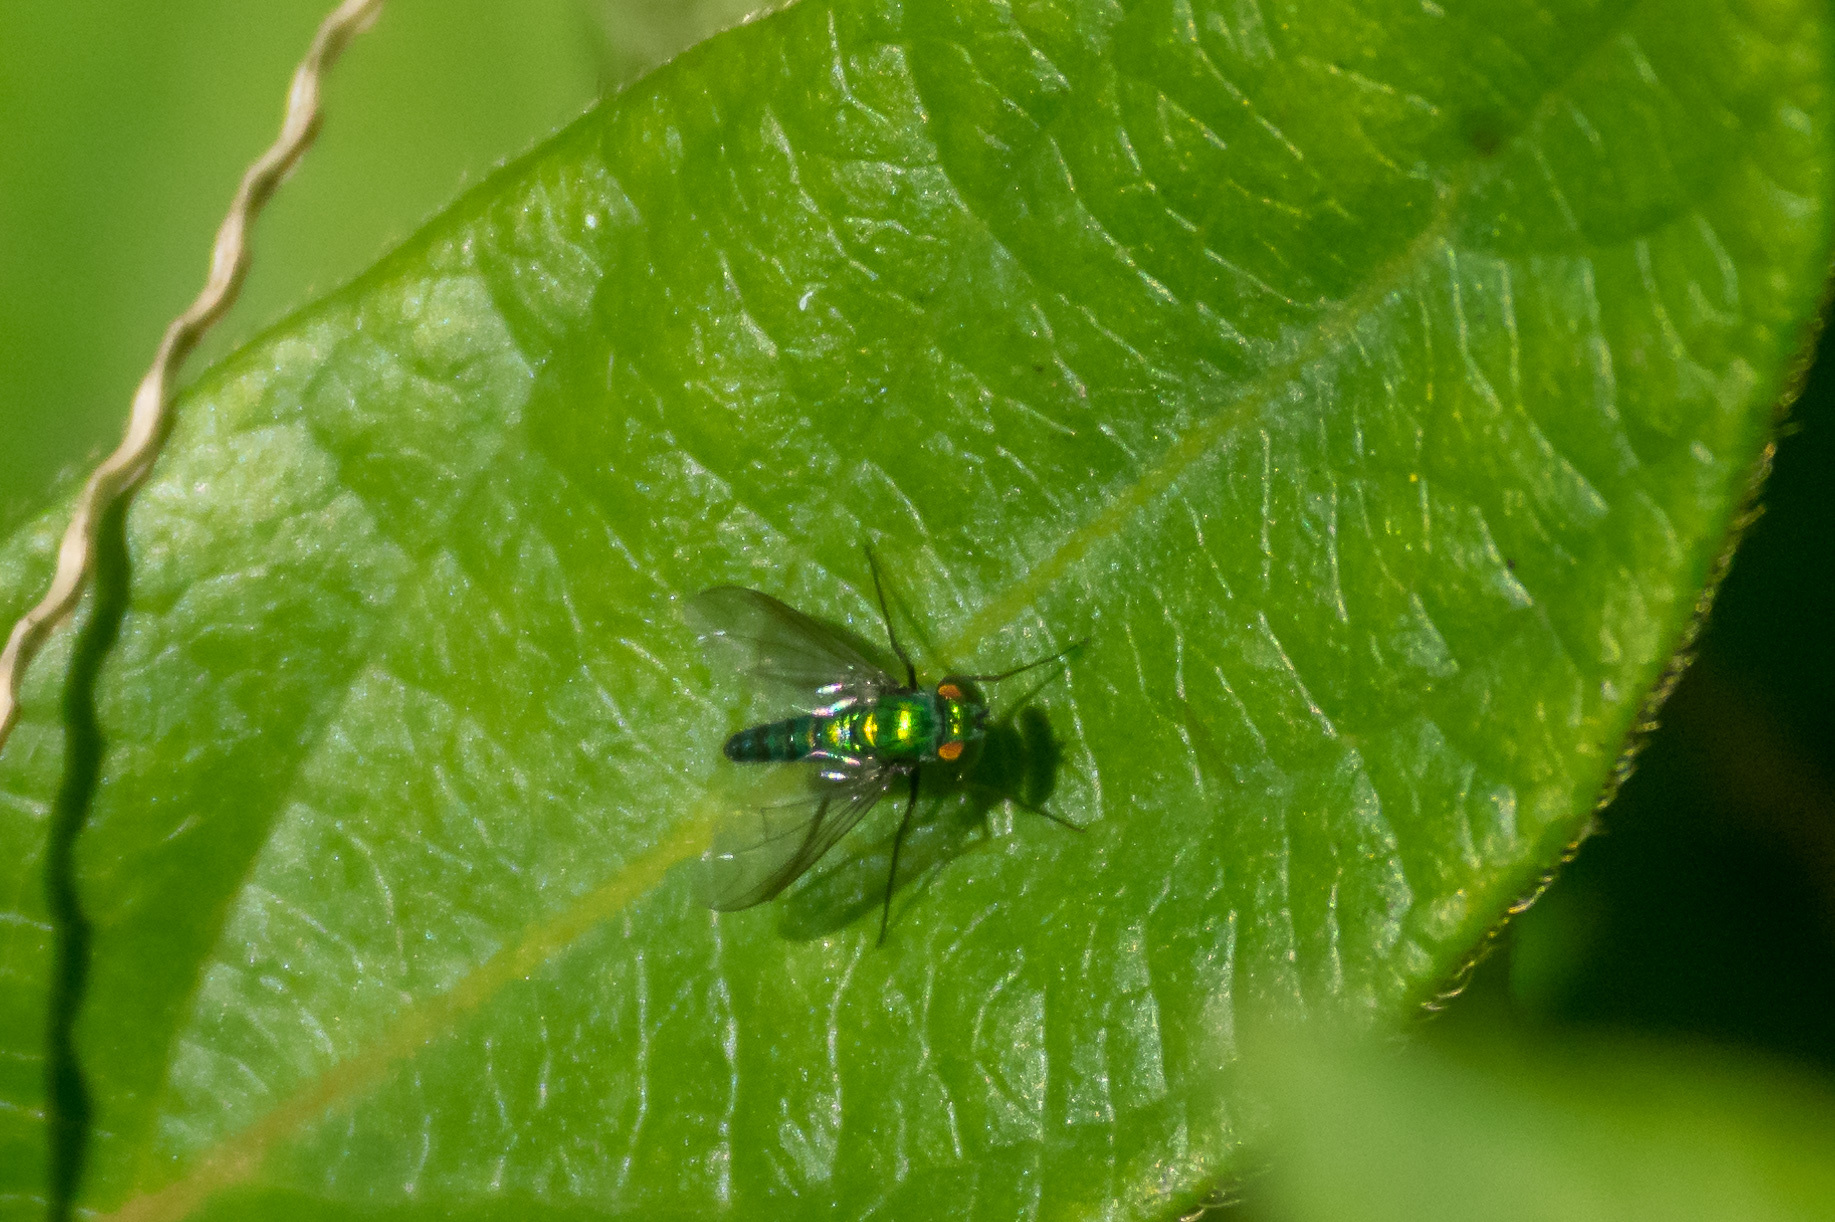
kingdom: Animalia
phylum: Arthropoda
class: Insecta
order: Diptera
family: Dolichopodidae
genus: Condylostylus
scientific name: Condylostylus longicornis
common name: Long-legged fly
